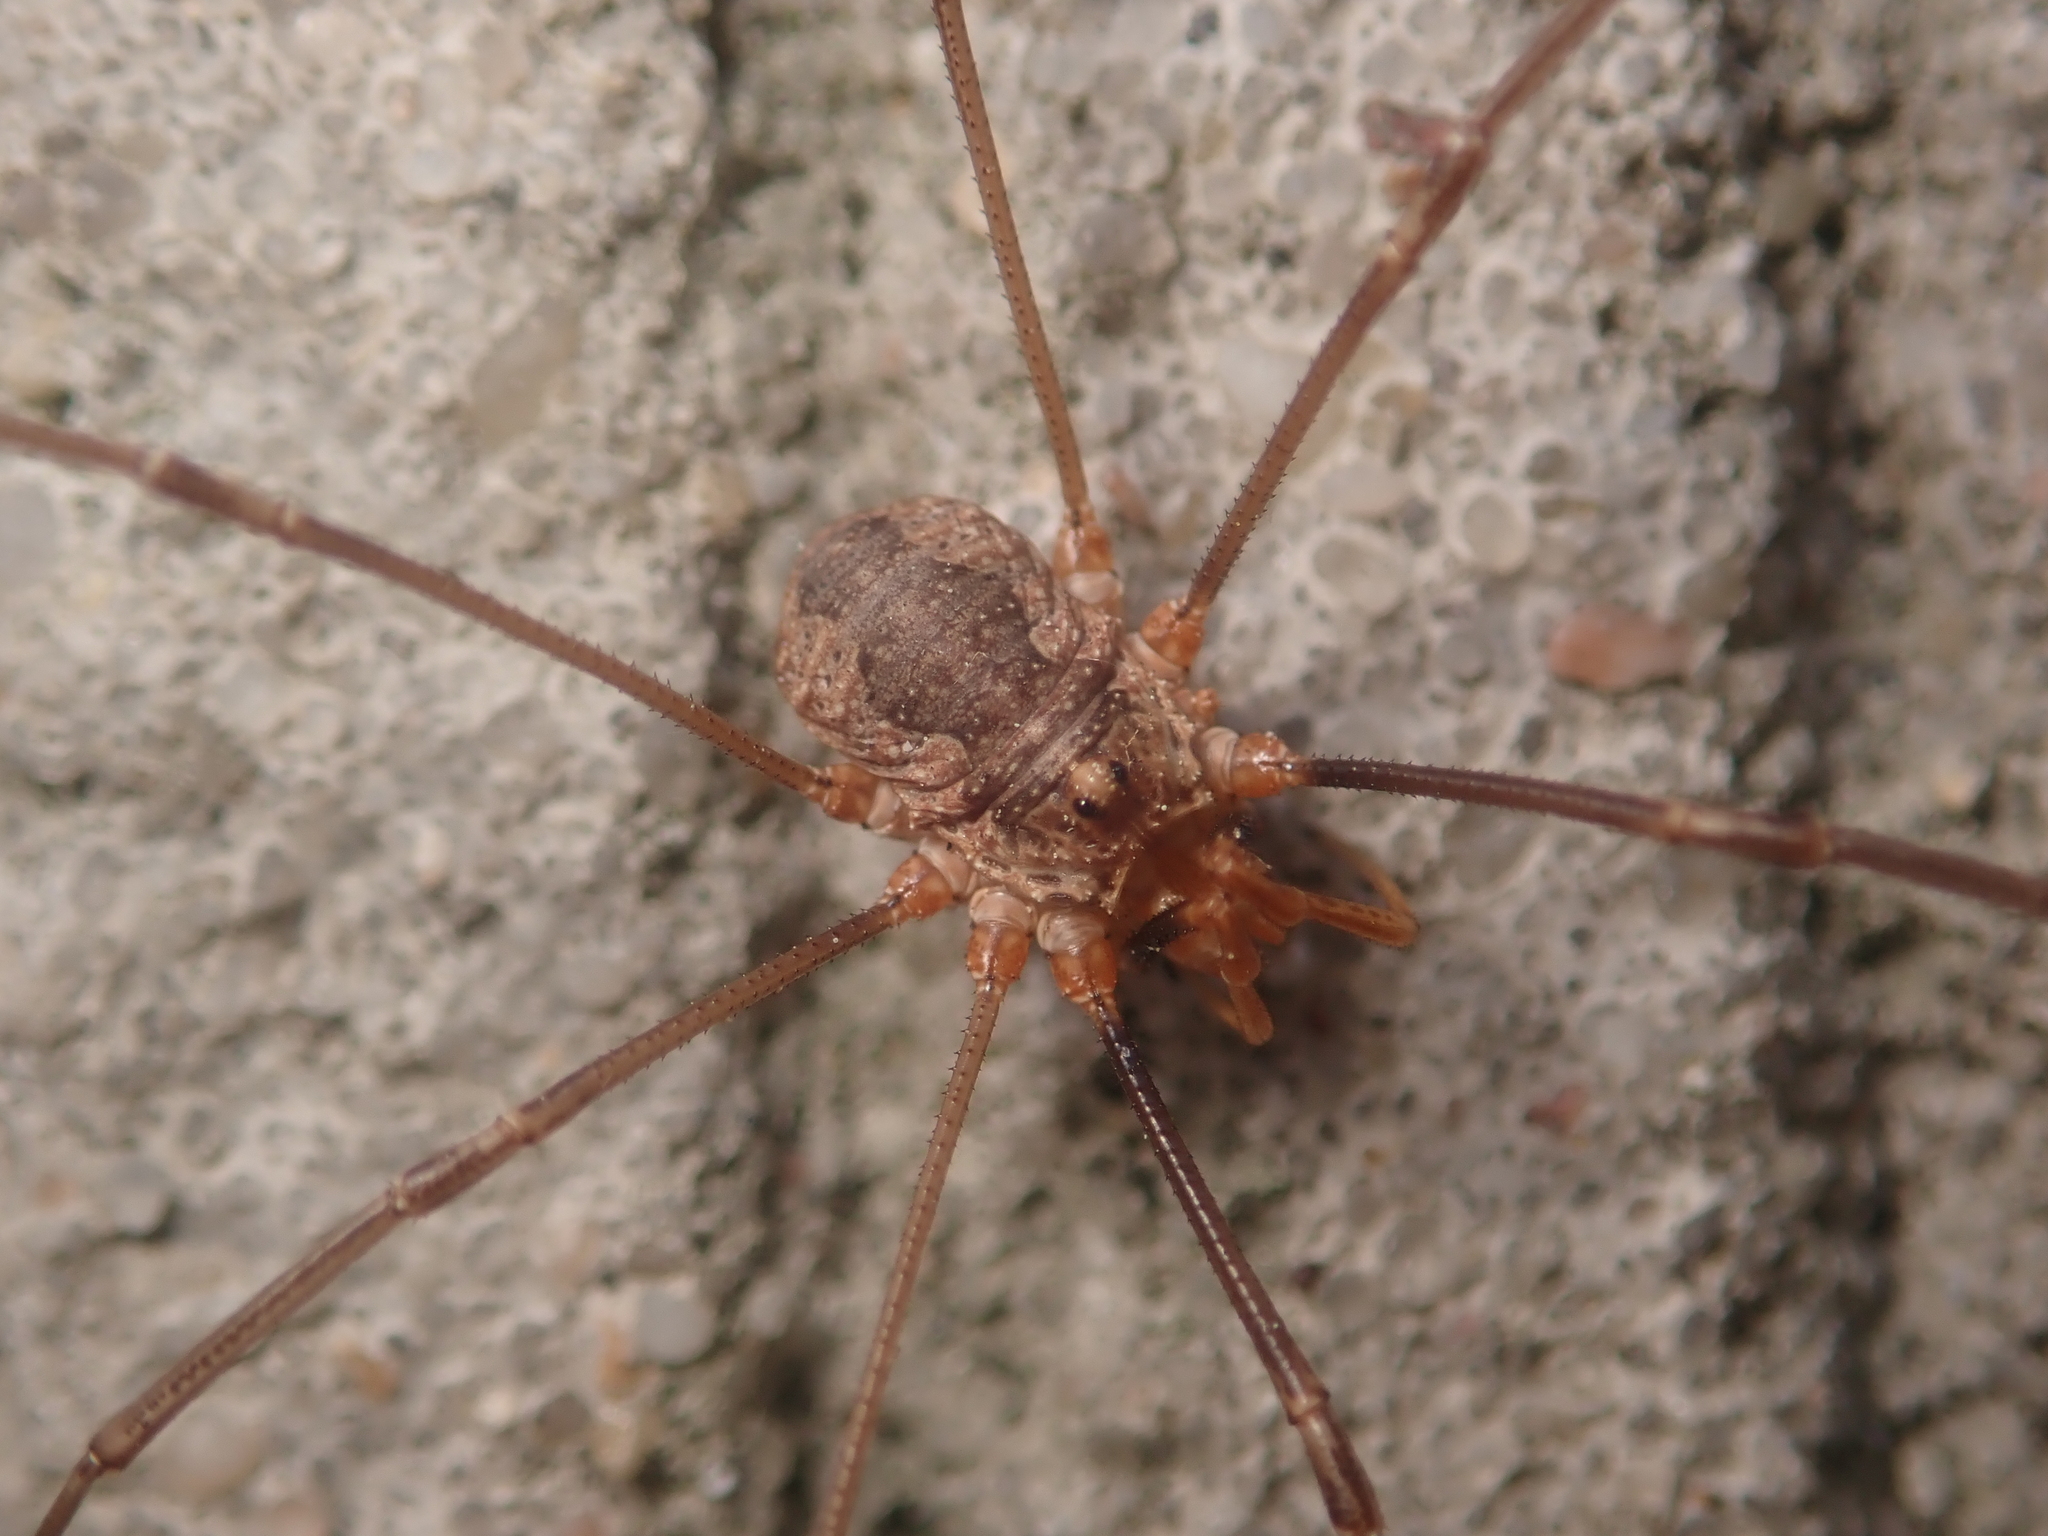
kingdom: Animalia
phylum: Arthropoda
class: Arachnida
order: Opiliones
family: Phalangiidae
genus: Phalangium
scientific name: Phalangium opilio
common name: Daddy longleg
